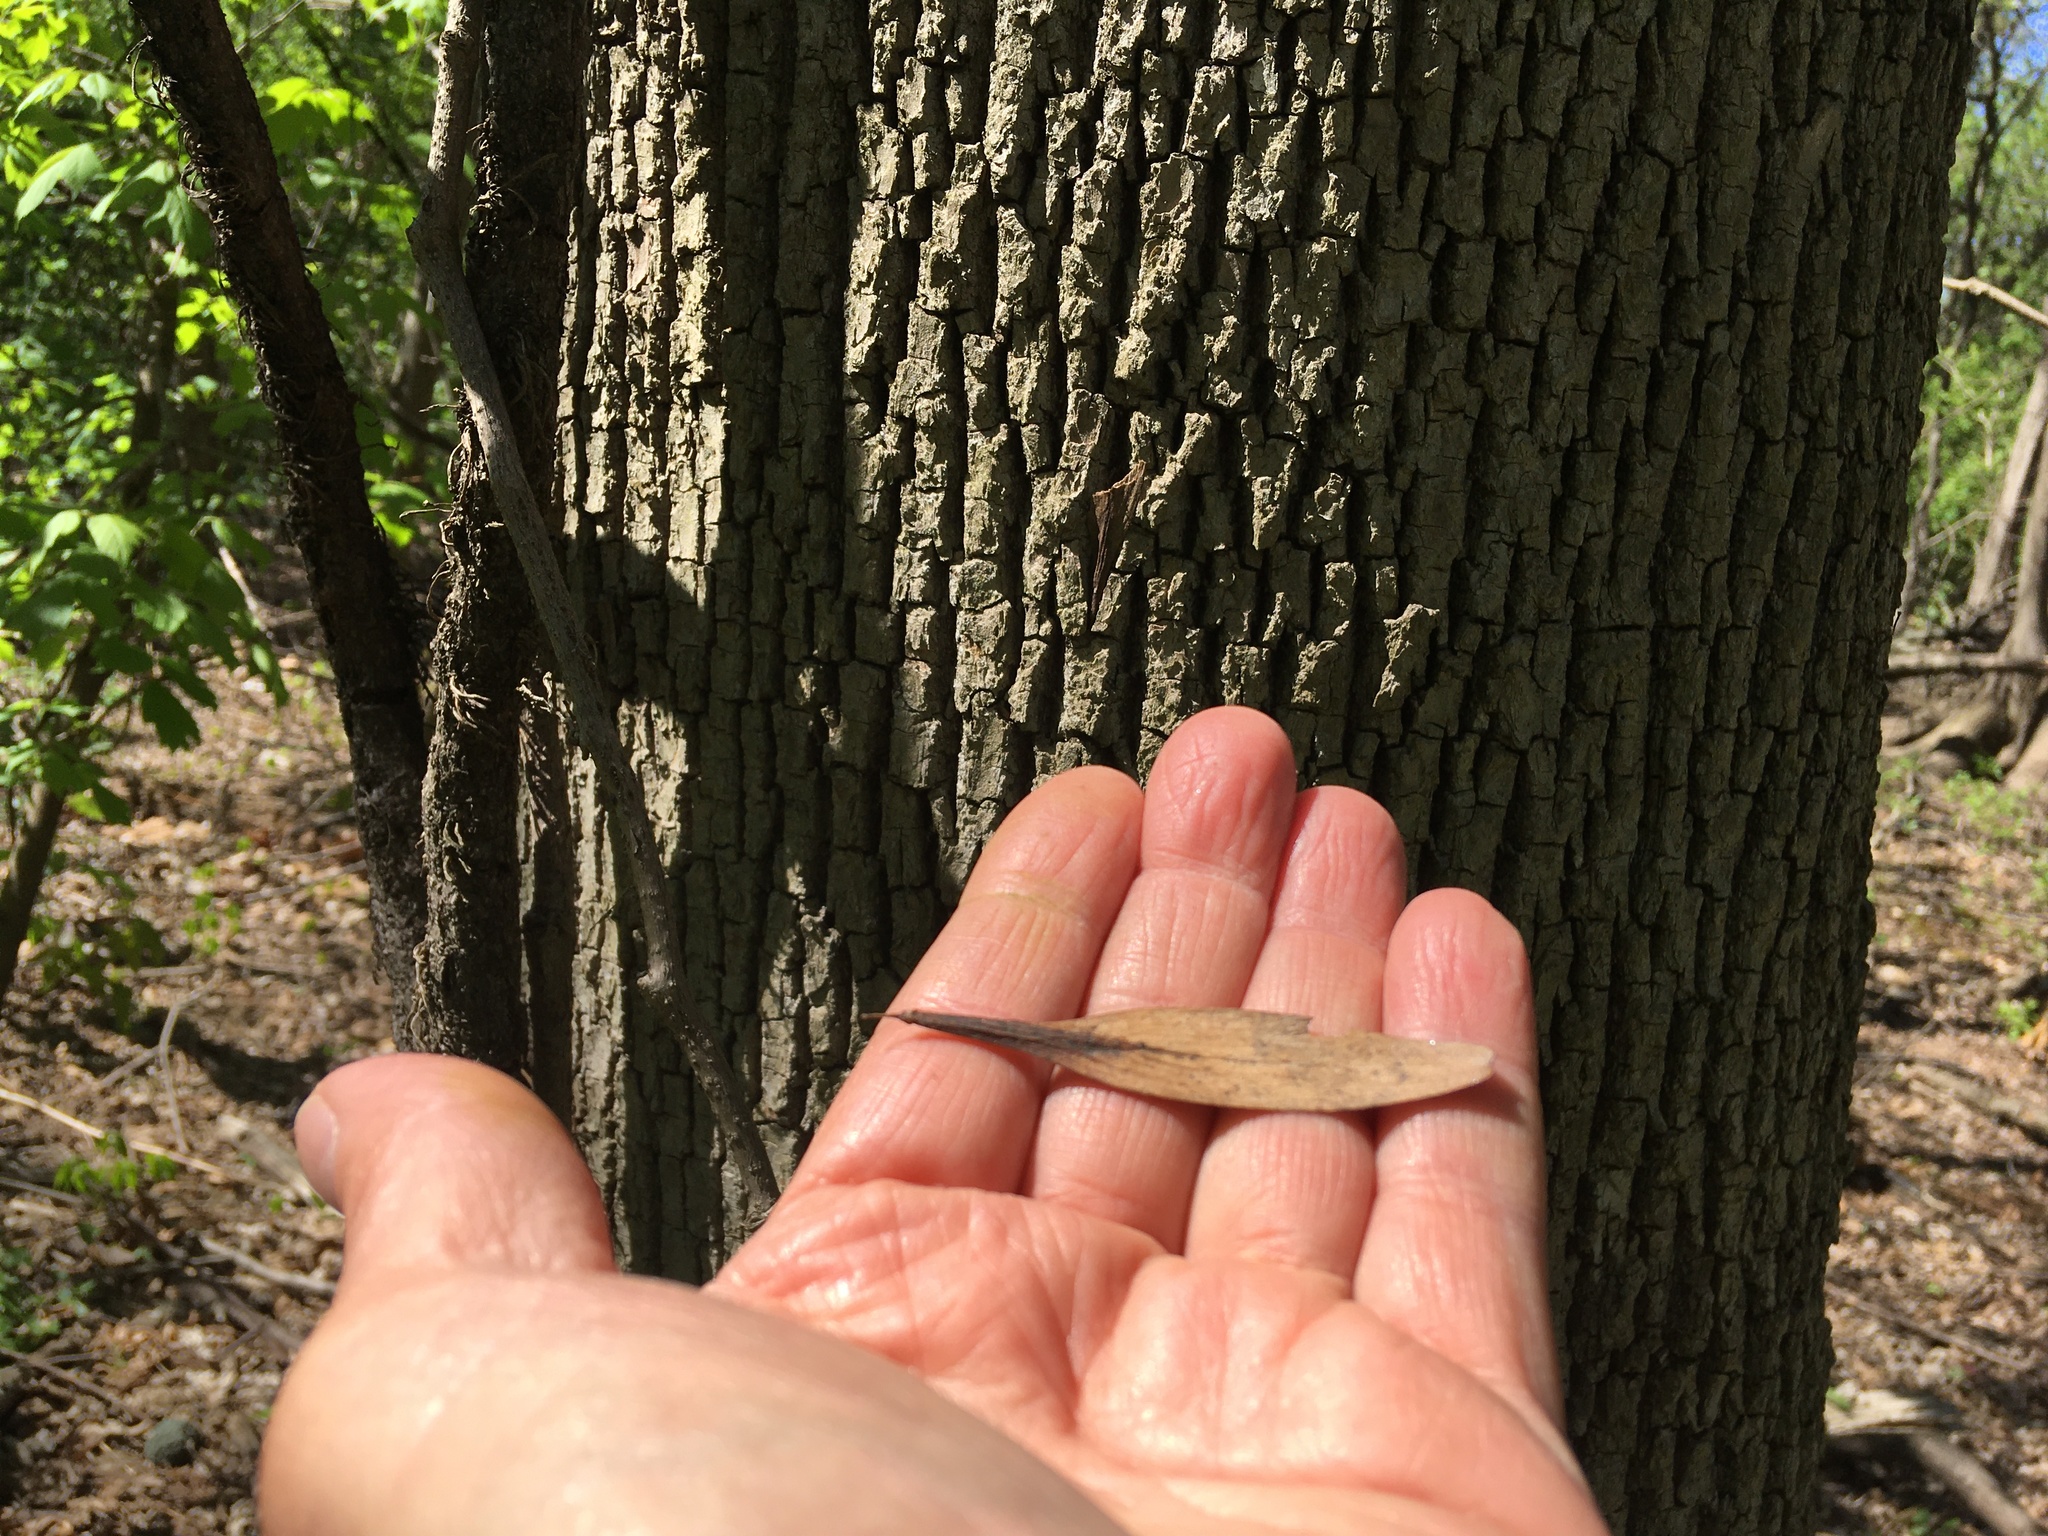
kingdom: Plantae
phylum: Tracheophyta
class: Magnoliopsida
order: Lamiales
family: Oleaceae
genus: Fraxinus
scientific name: Fraxinus profunda
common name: Pumpkin ash
